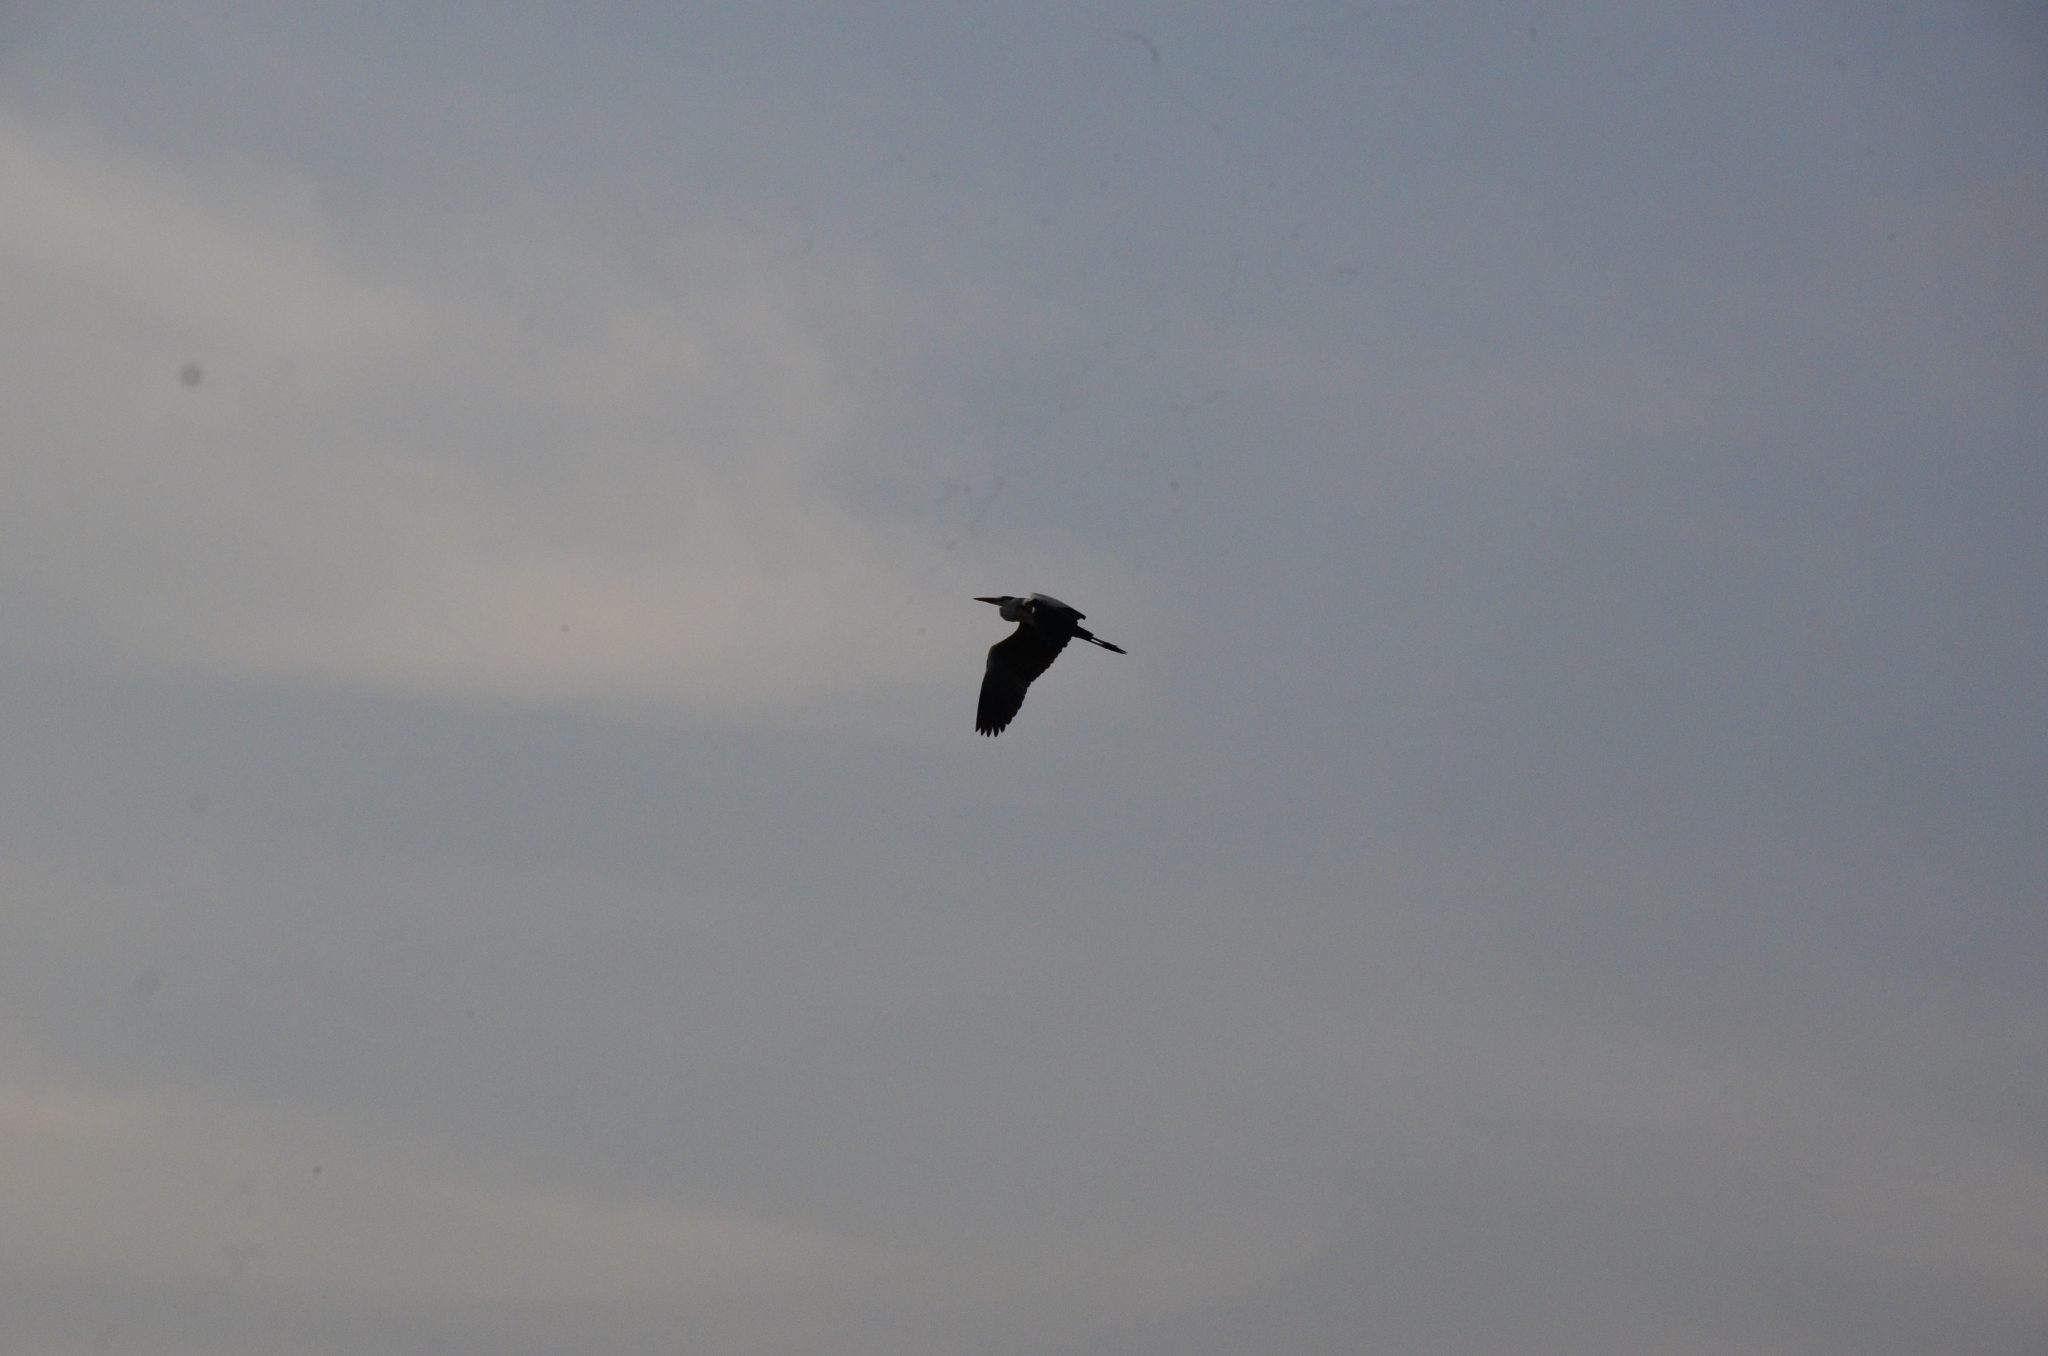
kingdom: Animalia
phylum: Chordata
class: Aves
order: Pelecaniformes
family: Ardeidae
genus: Ardea
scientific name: Ardea cinerea
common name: Grey heron
